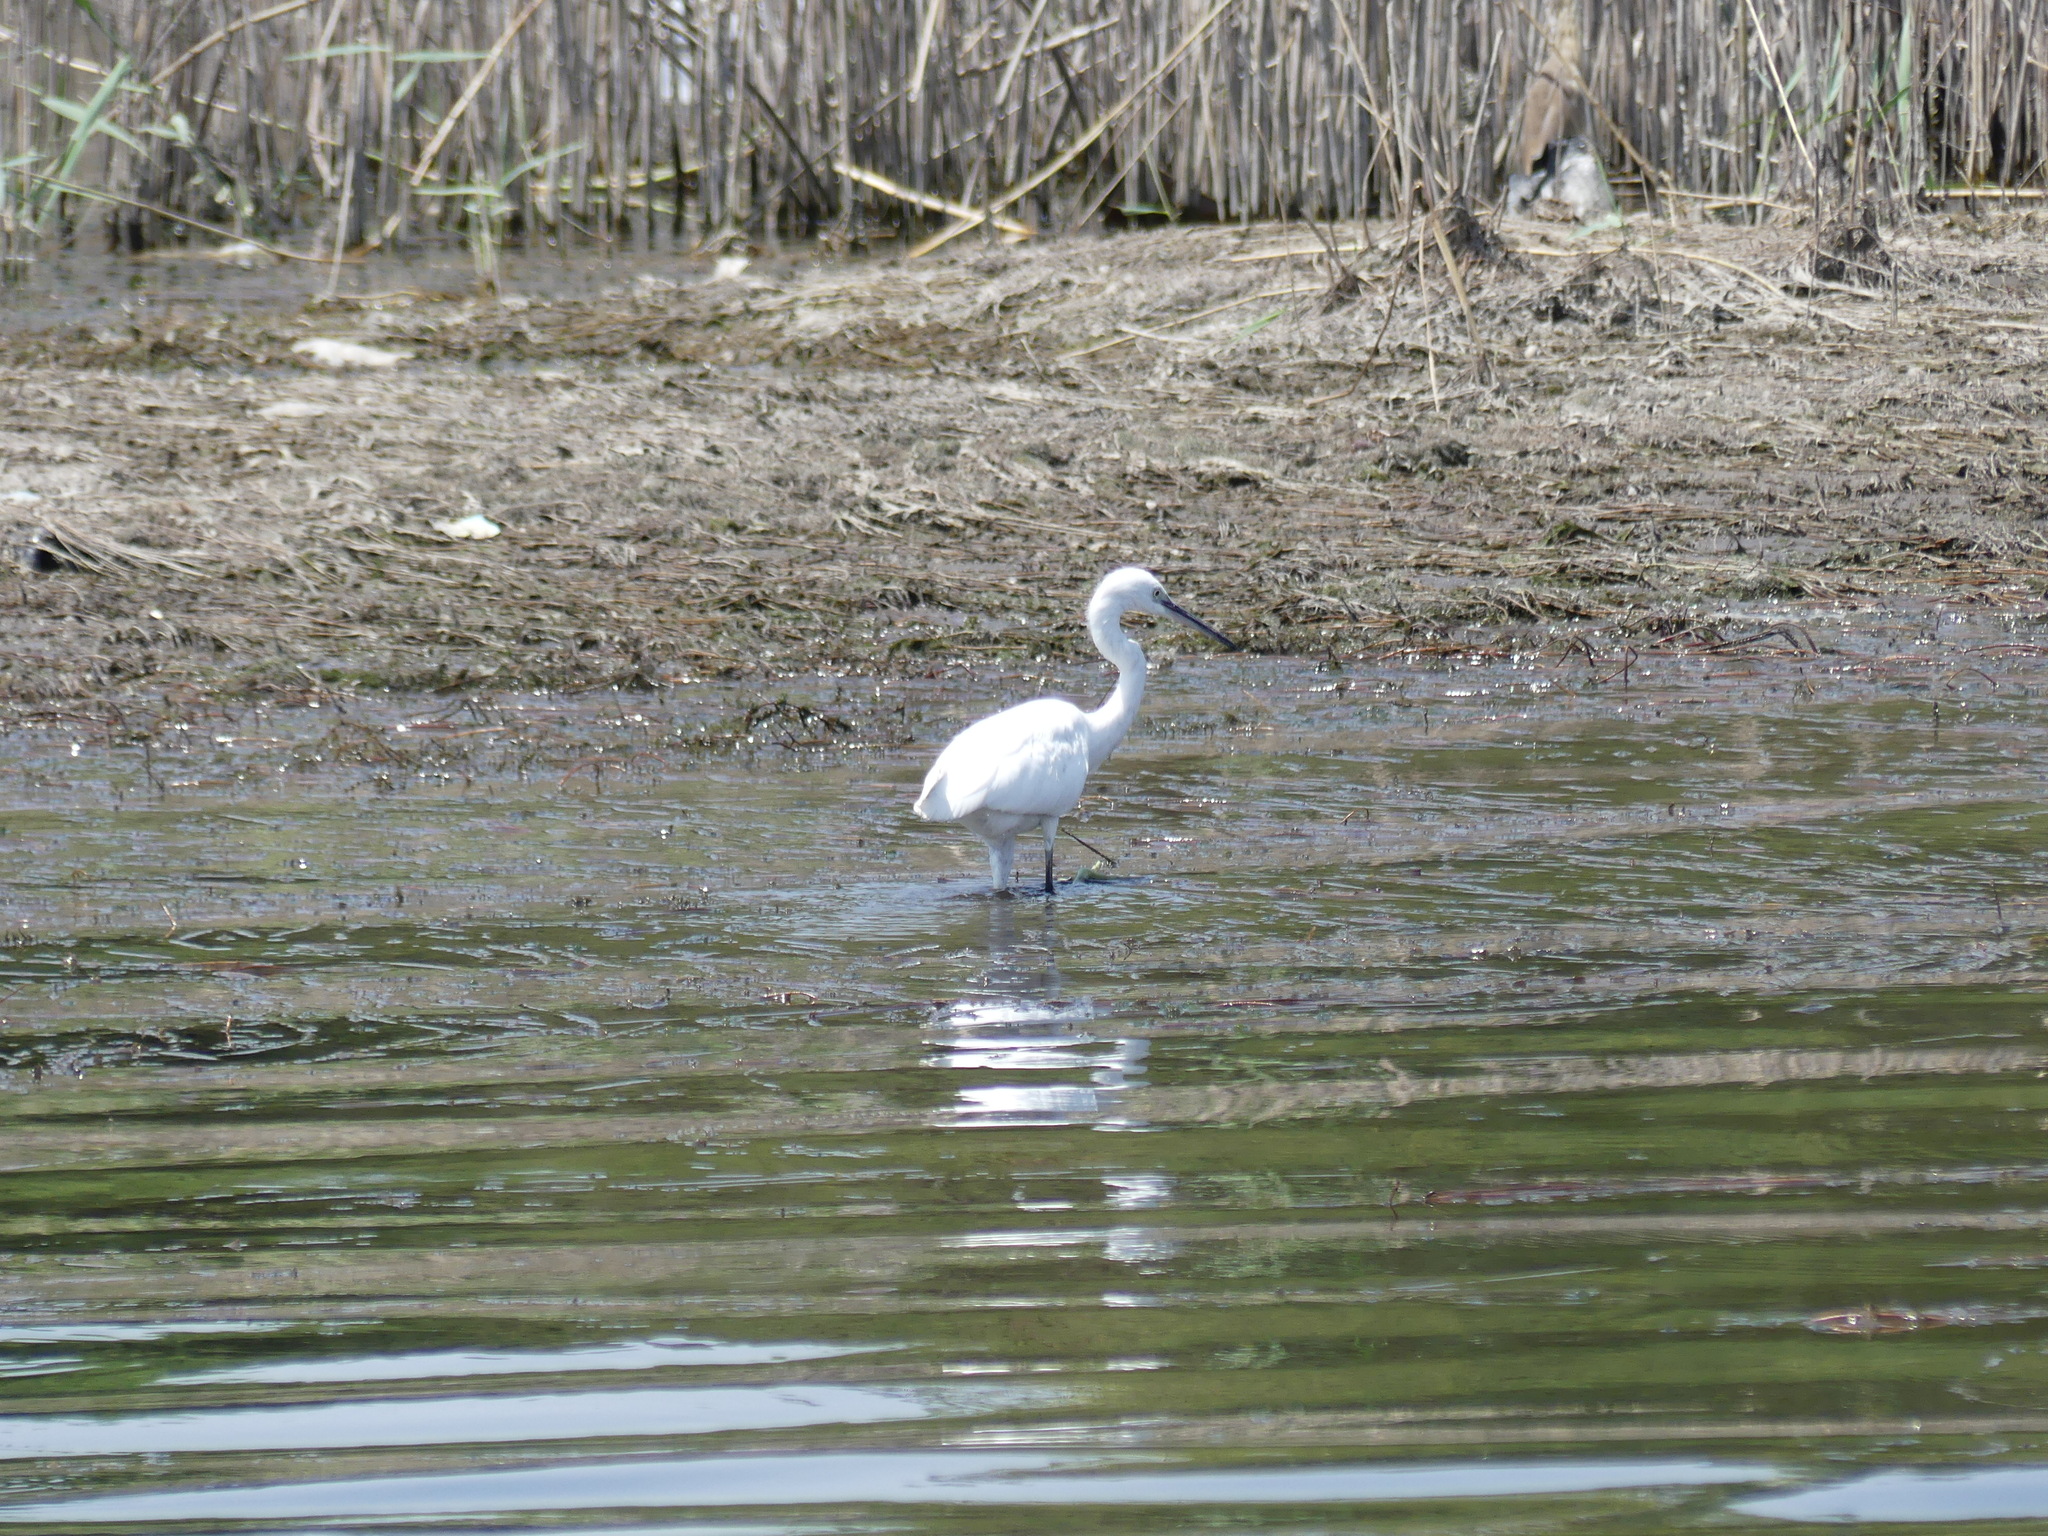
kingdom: Animalia
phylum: Chordata
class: Aves
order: Pelecaniformes
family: Ardeidae
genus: Egretta
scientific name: Egretta garzetta
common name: Little egret
